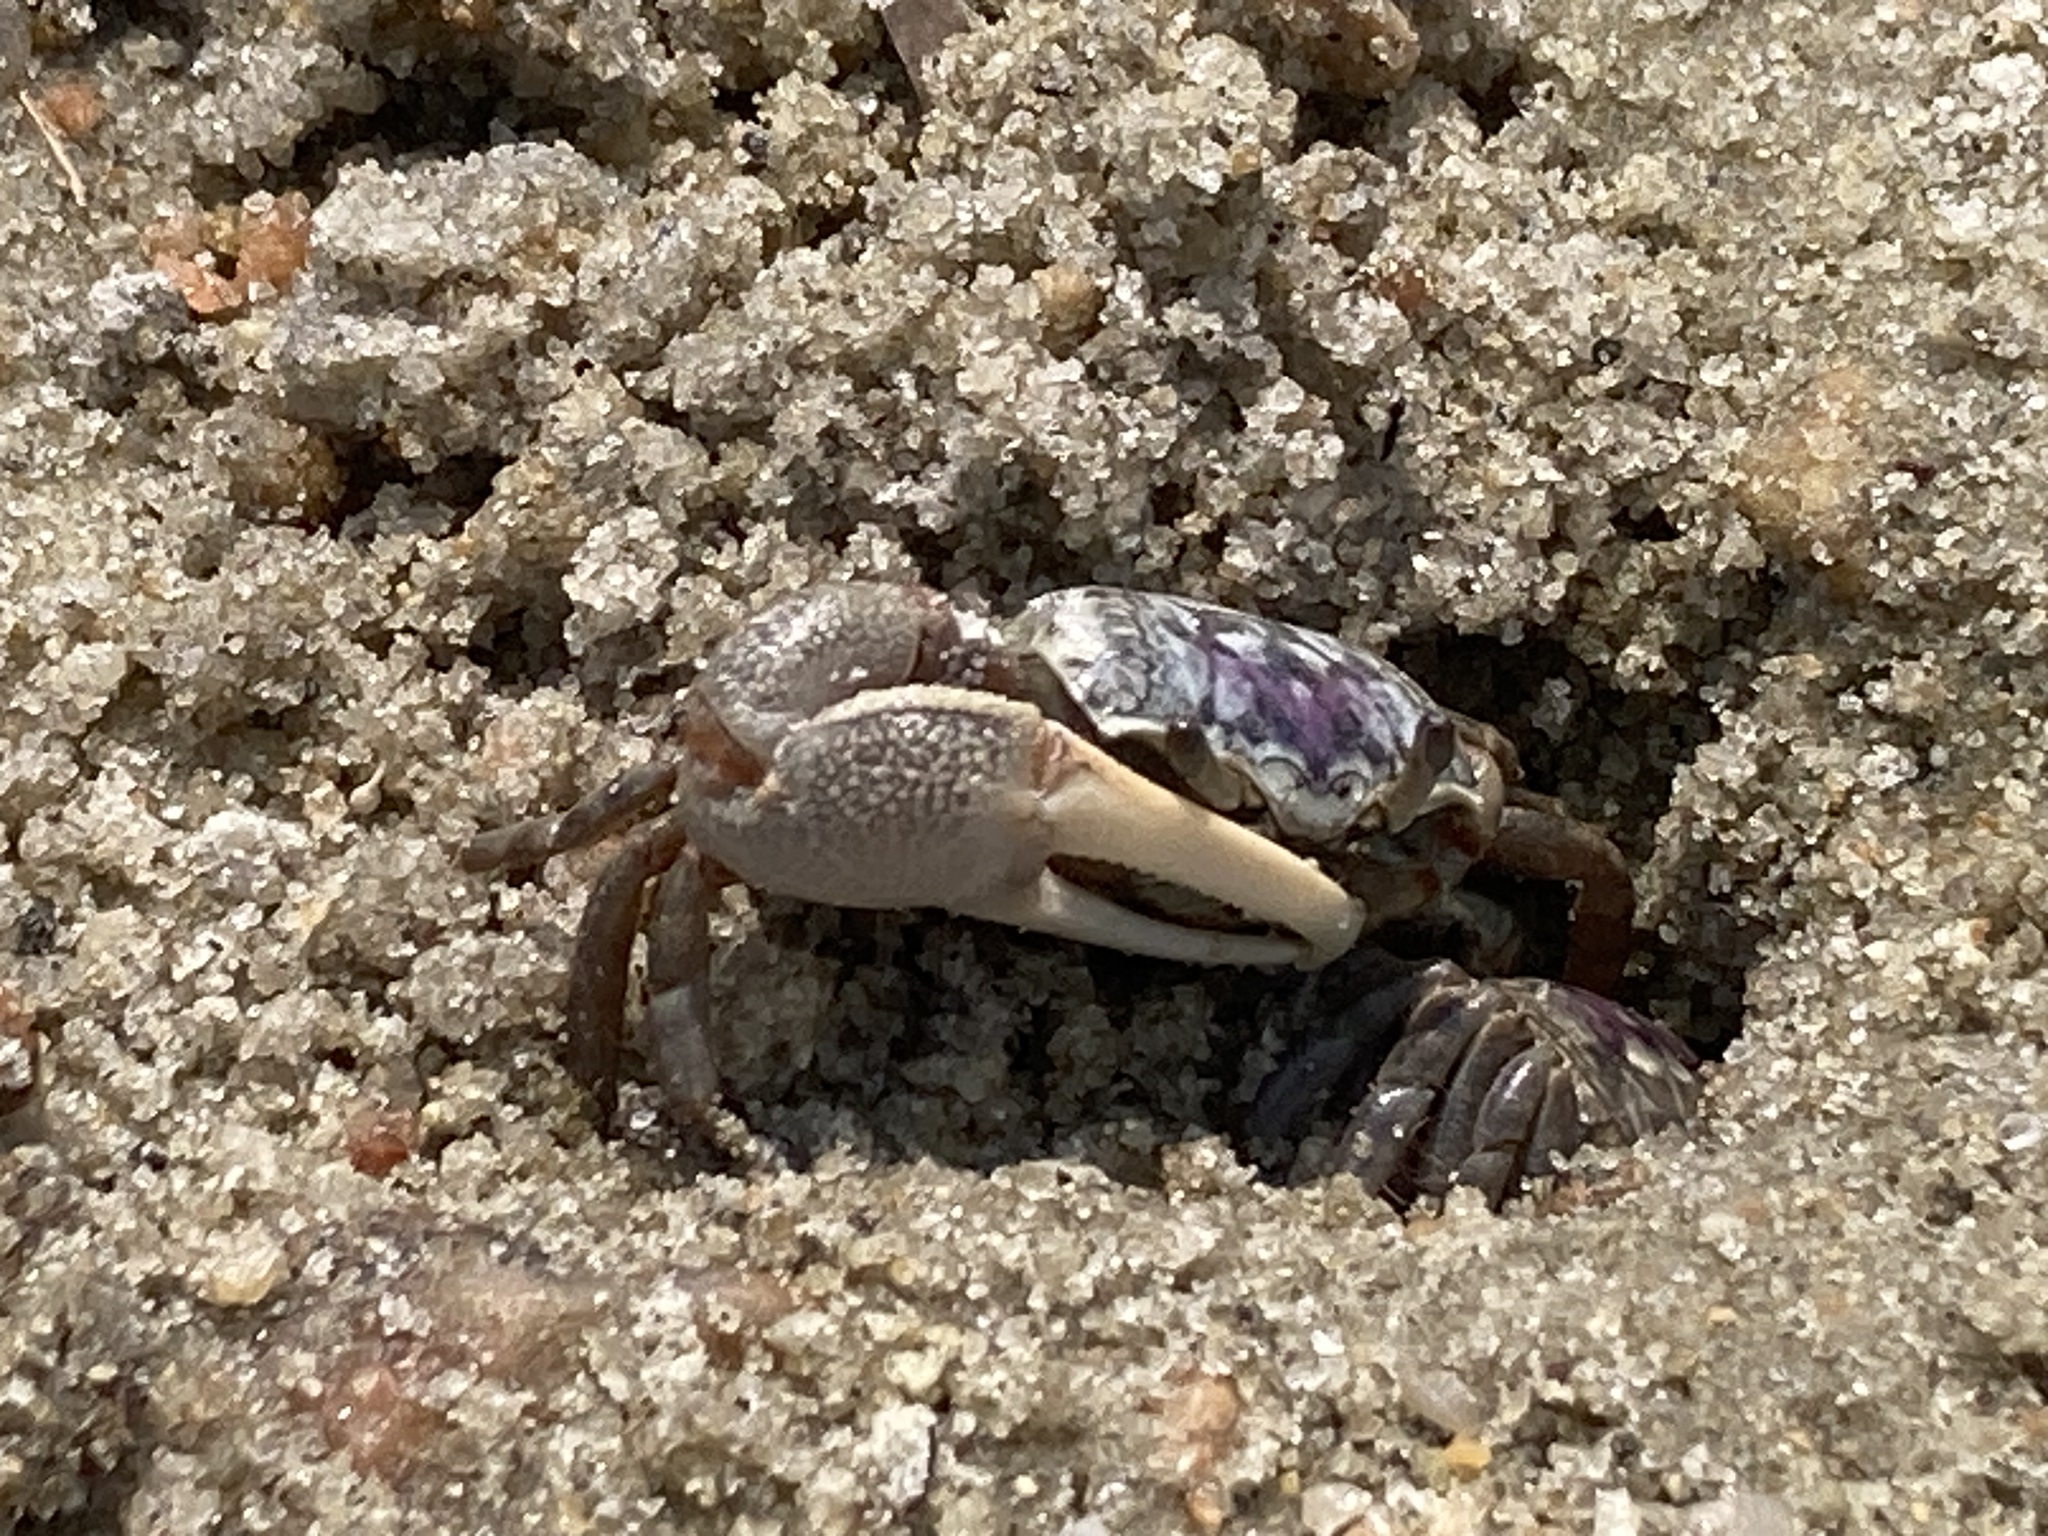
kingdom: Animalia
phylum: Arthropoda
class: Malacostraca
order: Decapoda
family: Ocypodidae
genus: Leptuca
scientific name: Leptuca pugilator
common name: Atlantic sand fiddler crab
